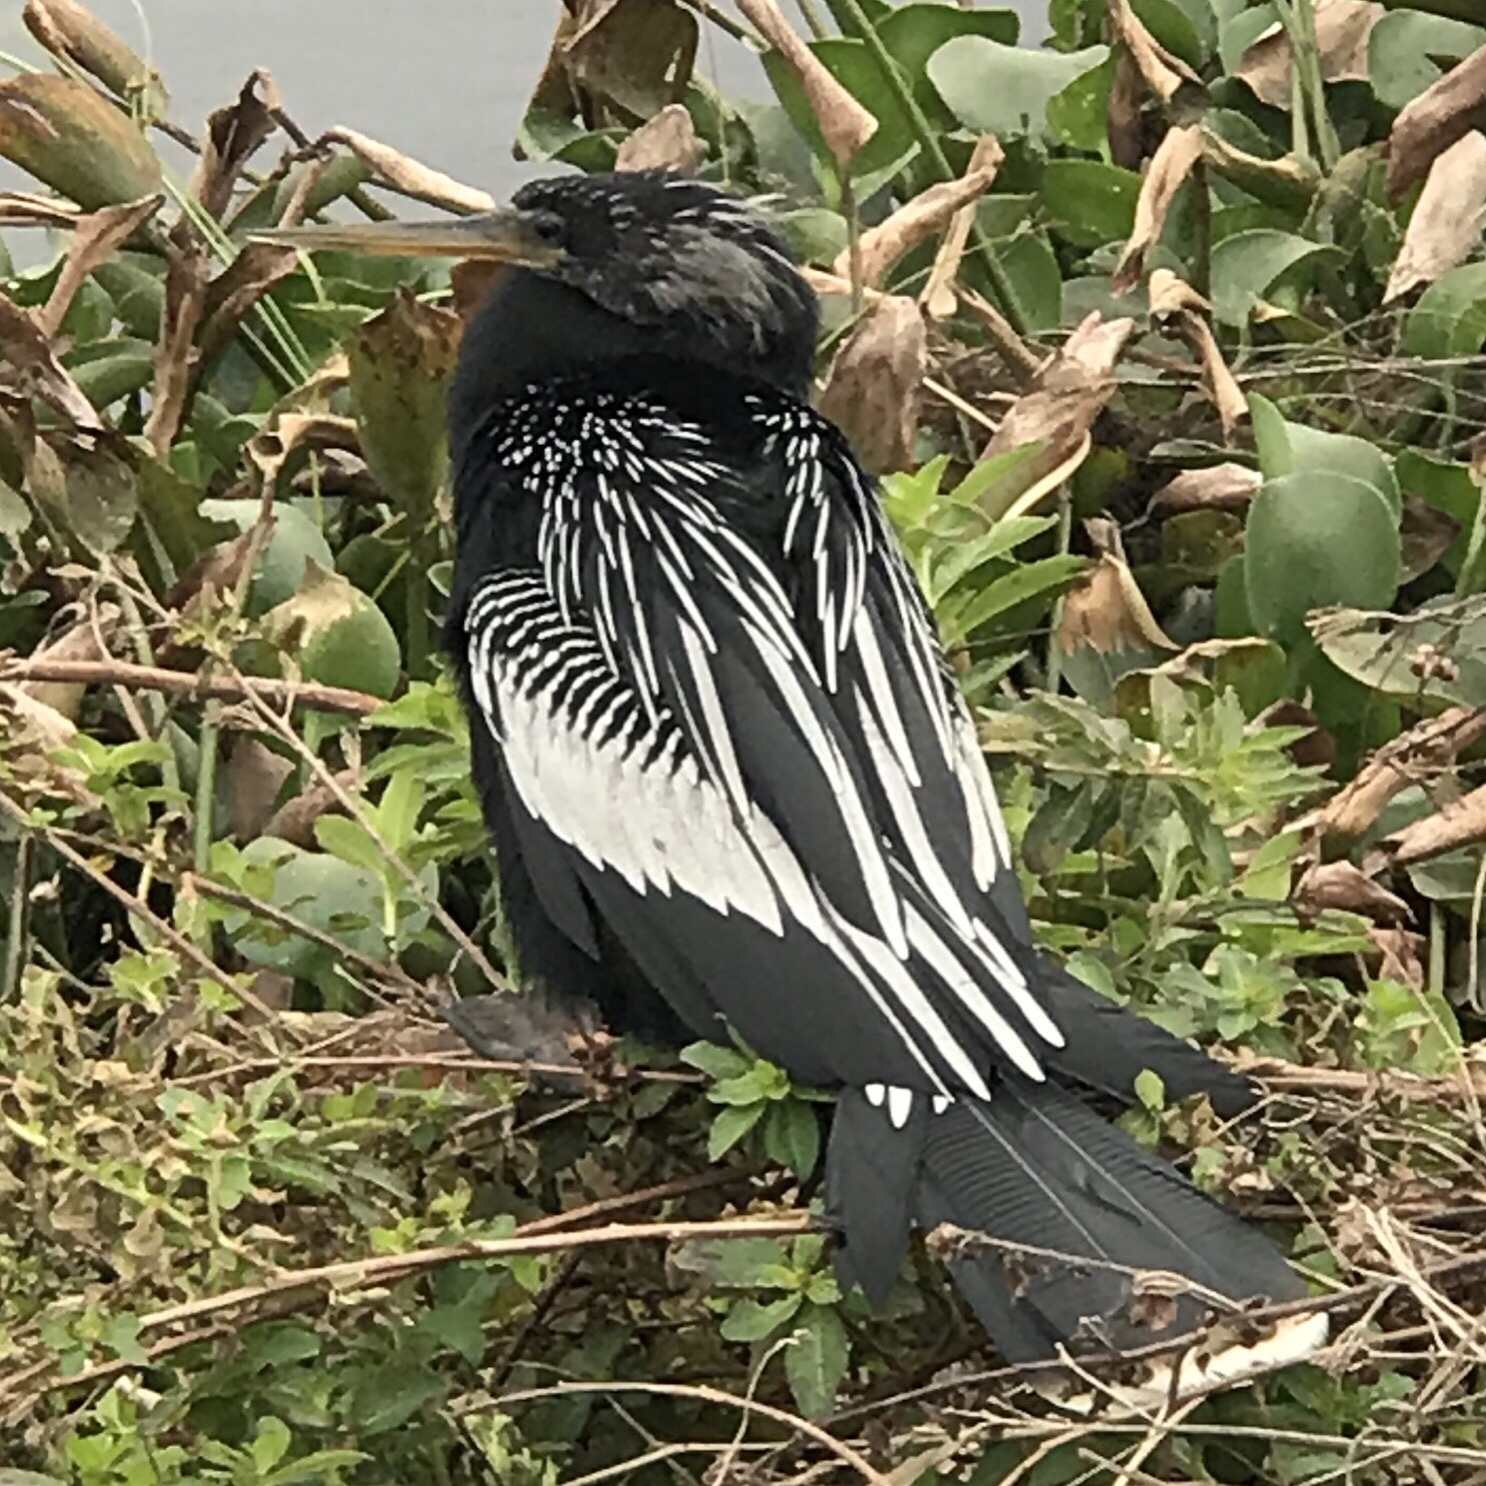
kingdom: Animalia
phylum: Chordata
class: Aves
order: Suliformes
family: Anhingidae
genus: Anhinga
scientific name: Anhinga anhinga
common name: Anhinga
